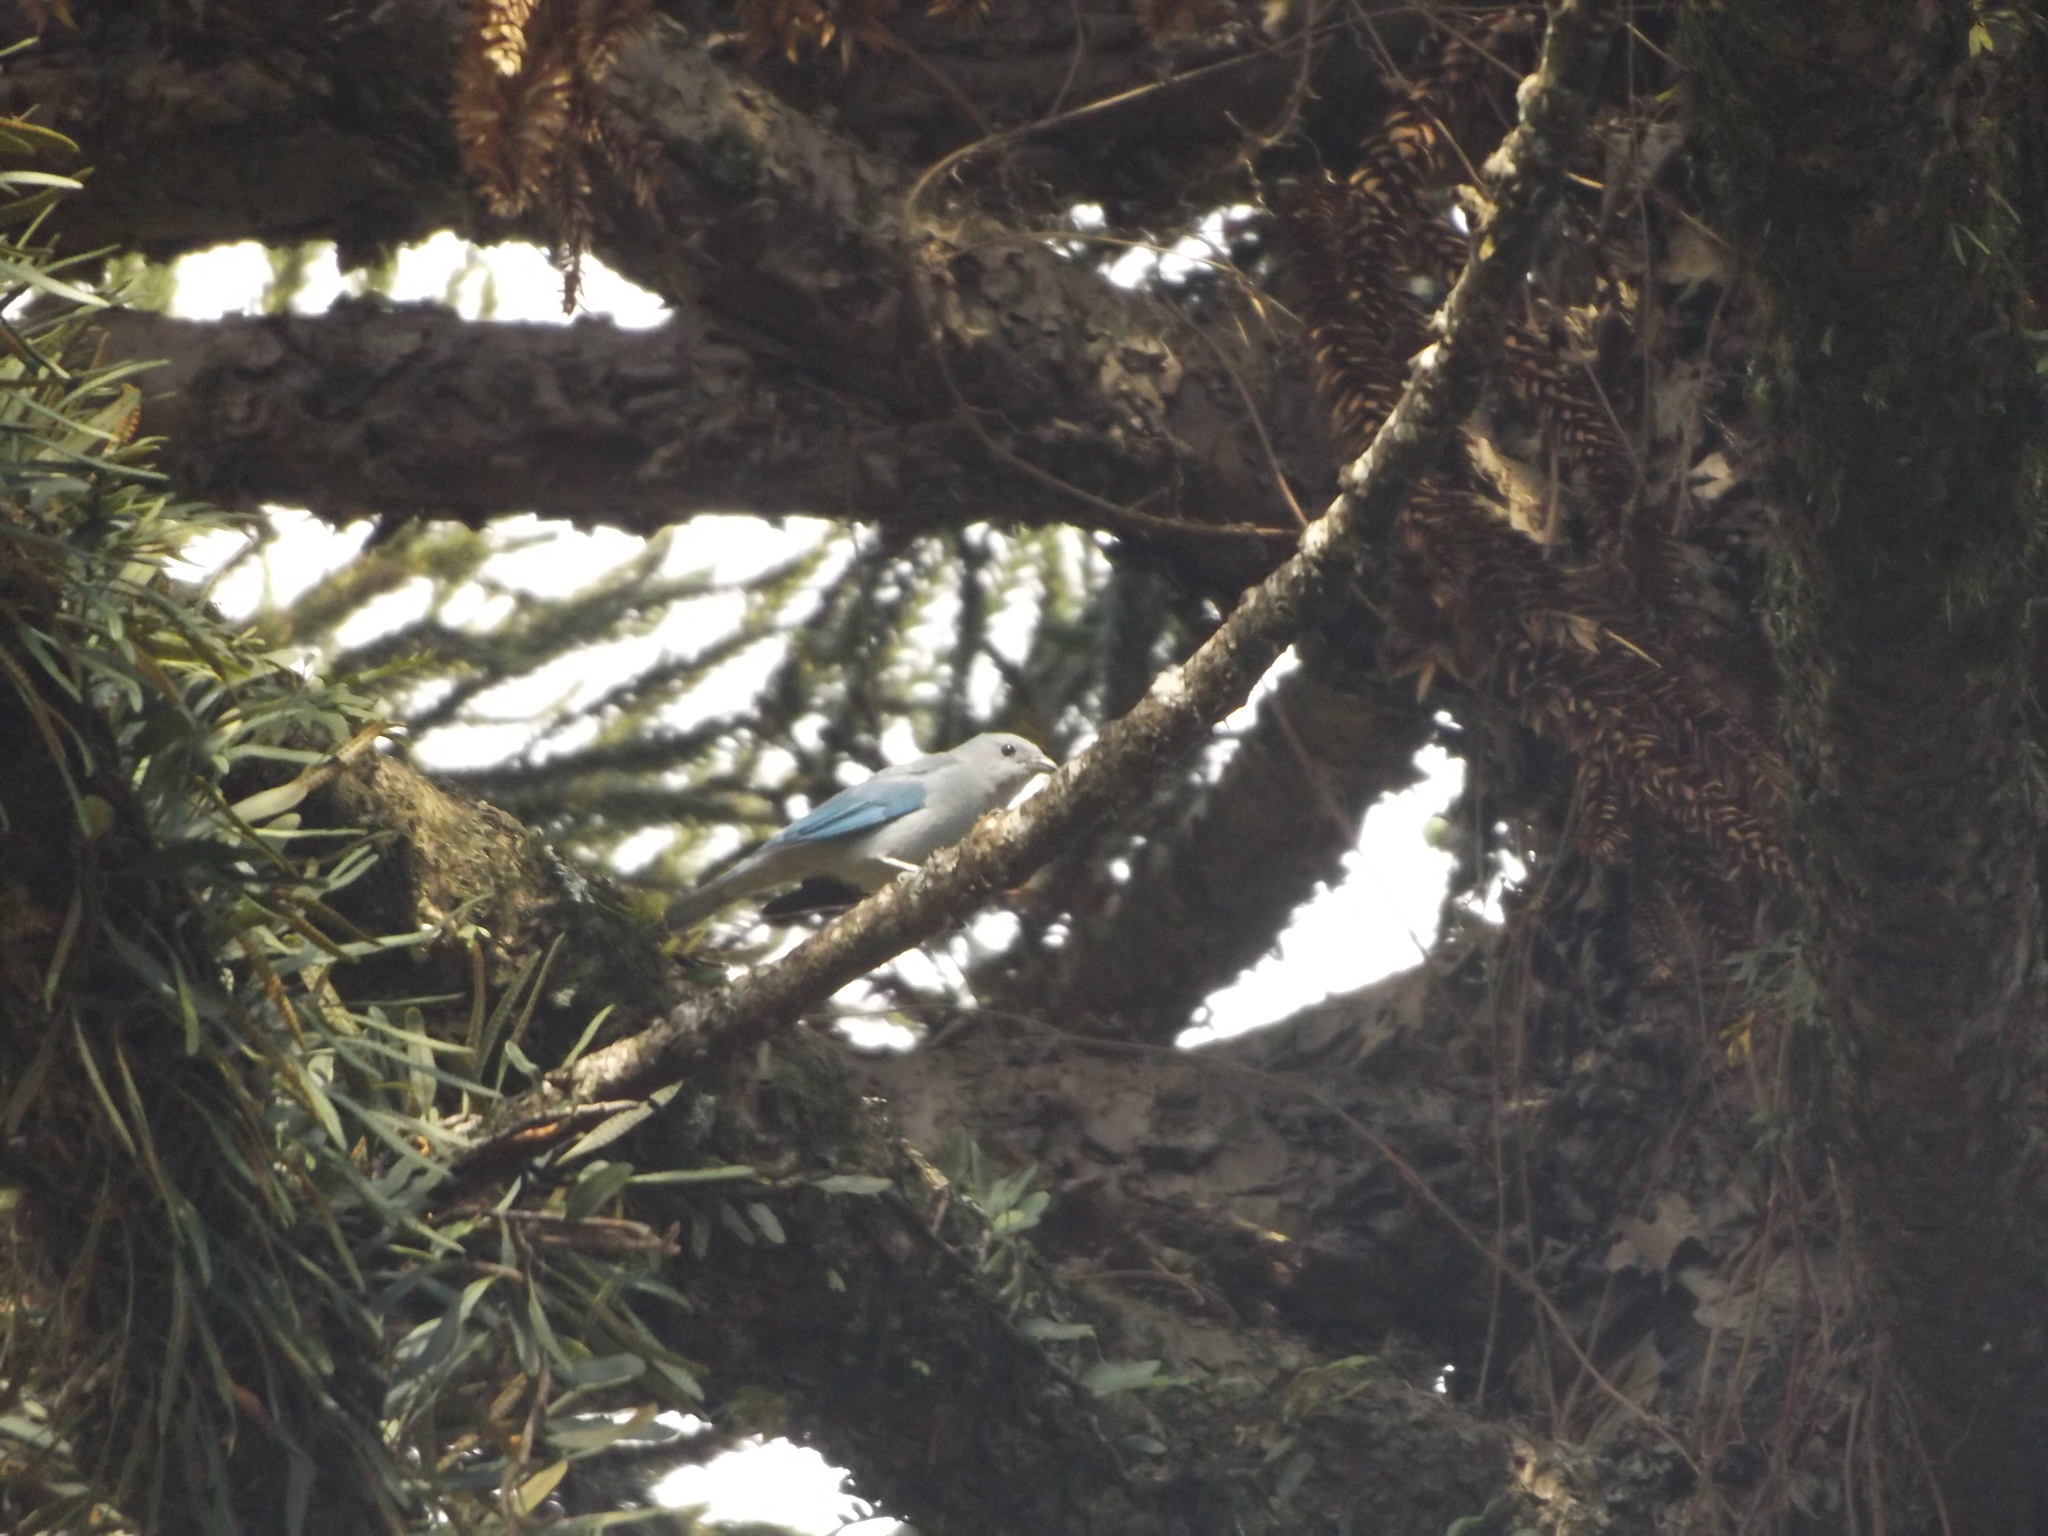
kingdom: Animalia
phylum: Chordata
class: Aves
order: Passeriformes
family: Thraupidae
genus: Thraupis
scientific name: Thraupis sayaca
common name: Sayaca tanager
